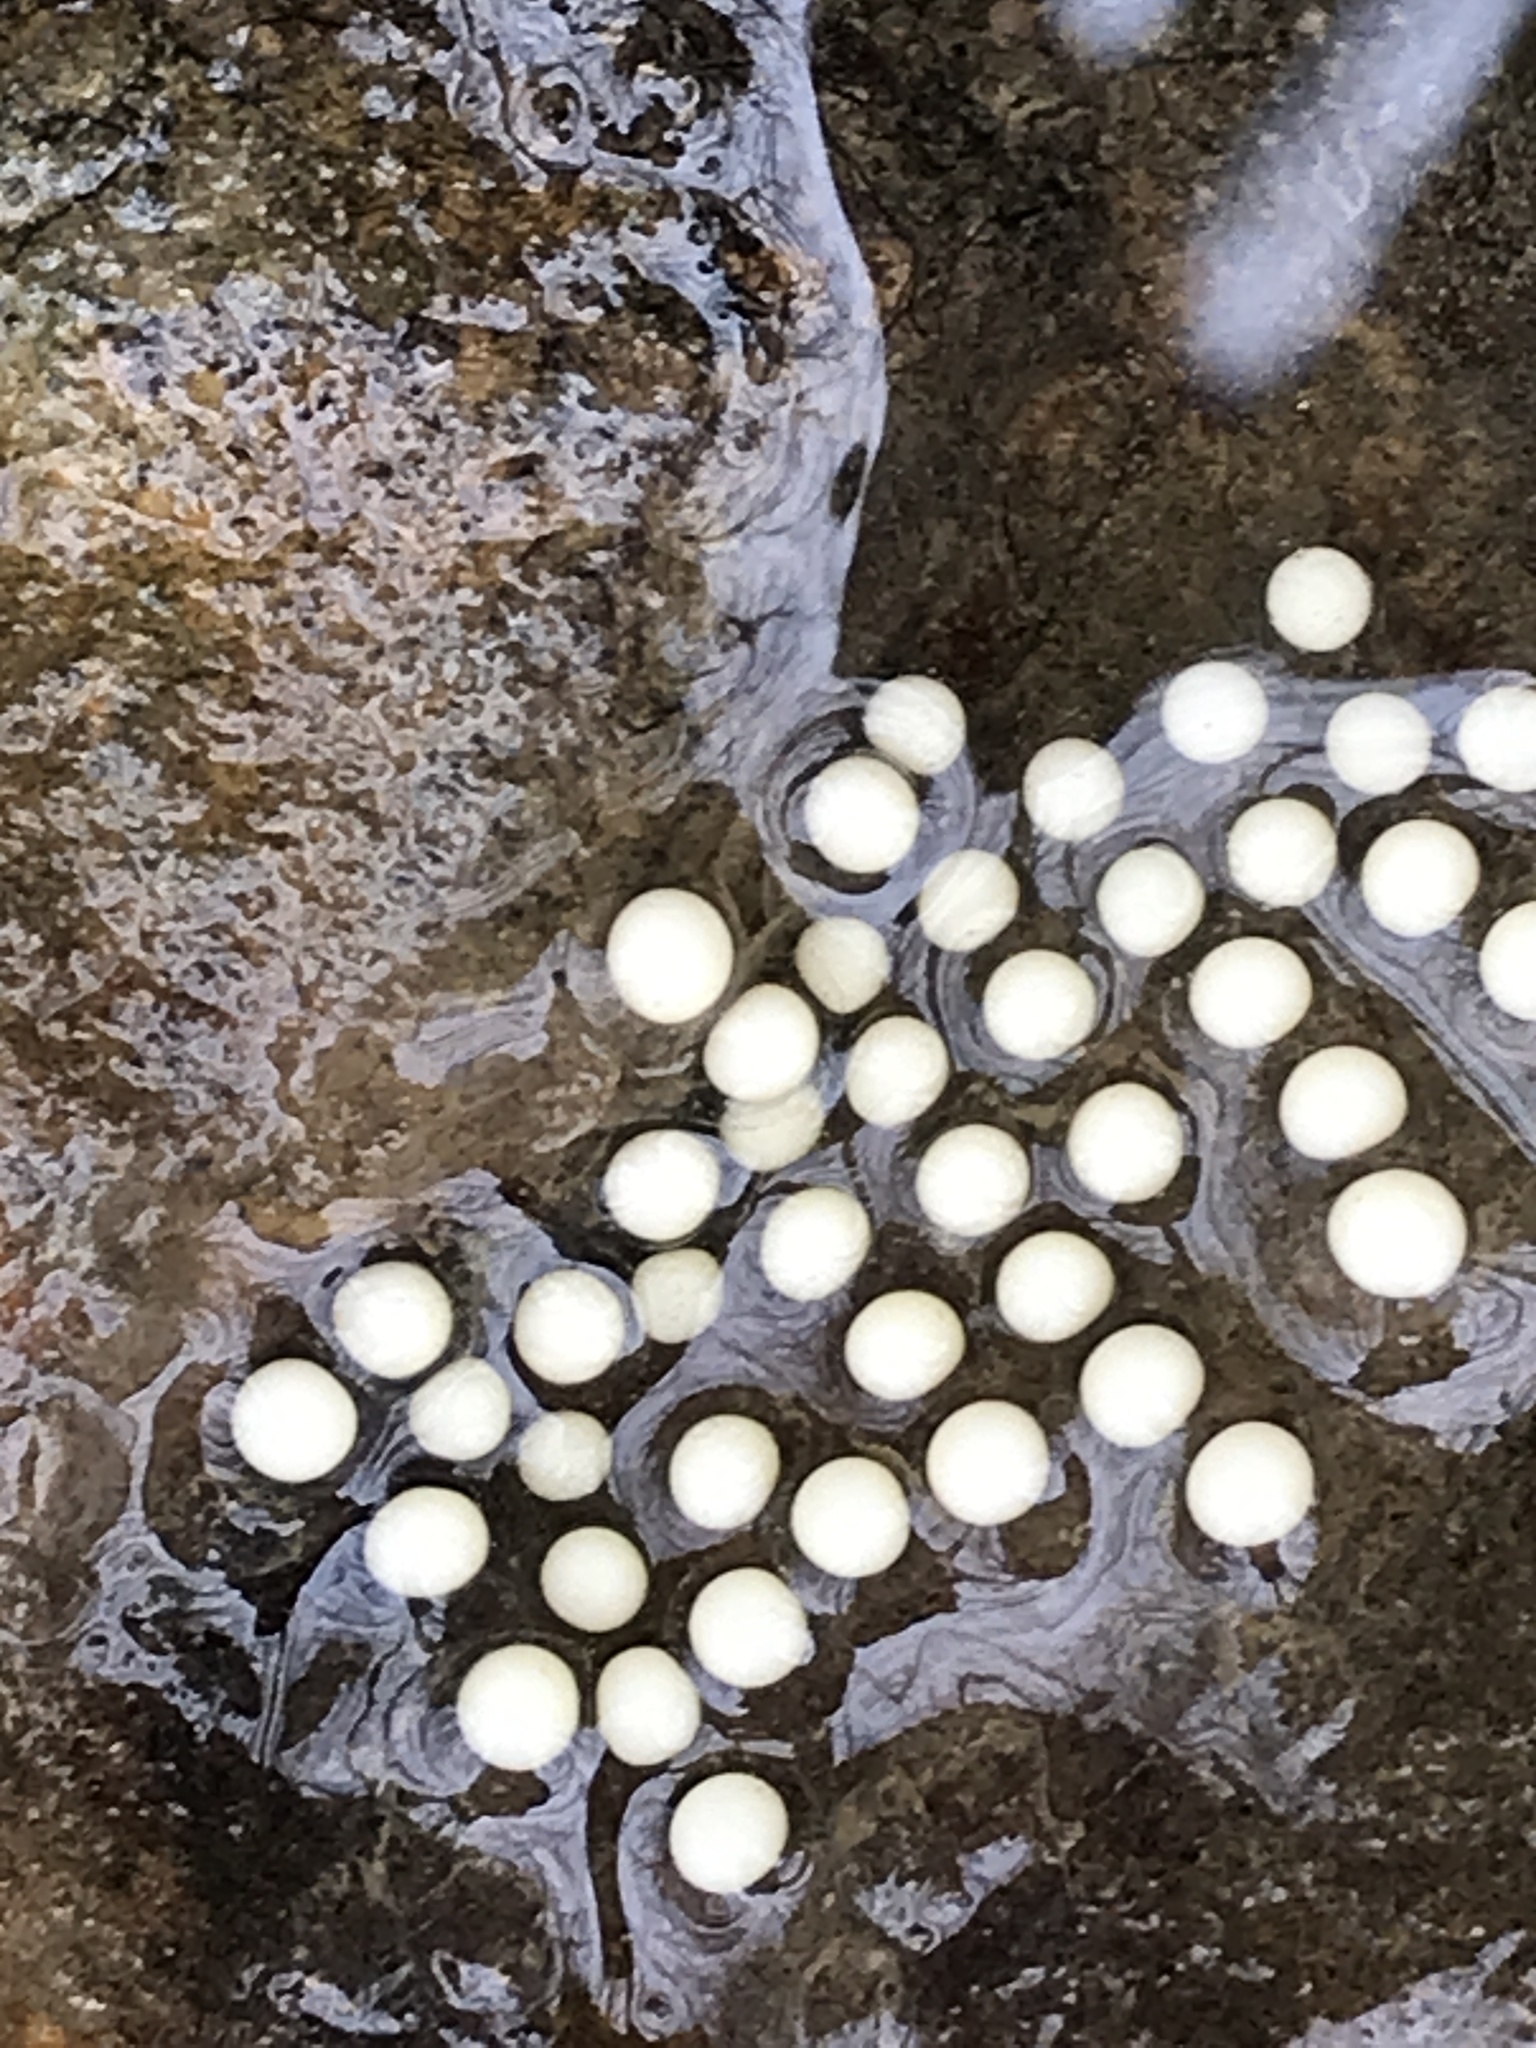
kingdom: Animalia
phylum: Chordata
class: Amphibia
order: Caudata
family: Plethodontidae
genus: Eurycea
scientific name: Eurycea cirrigera
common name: Southern two-lined salamander
